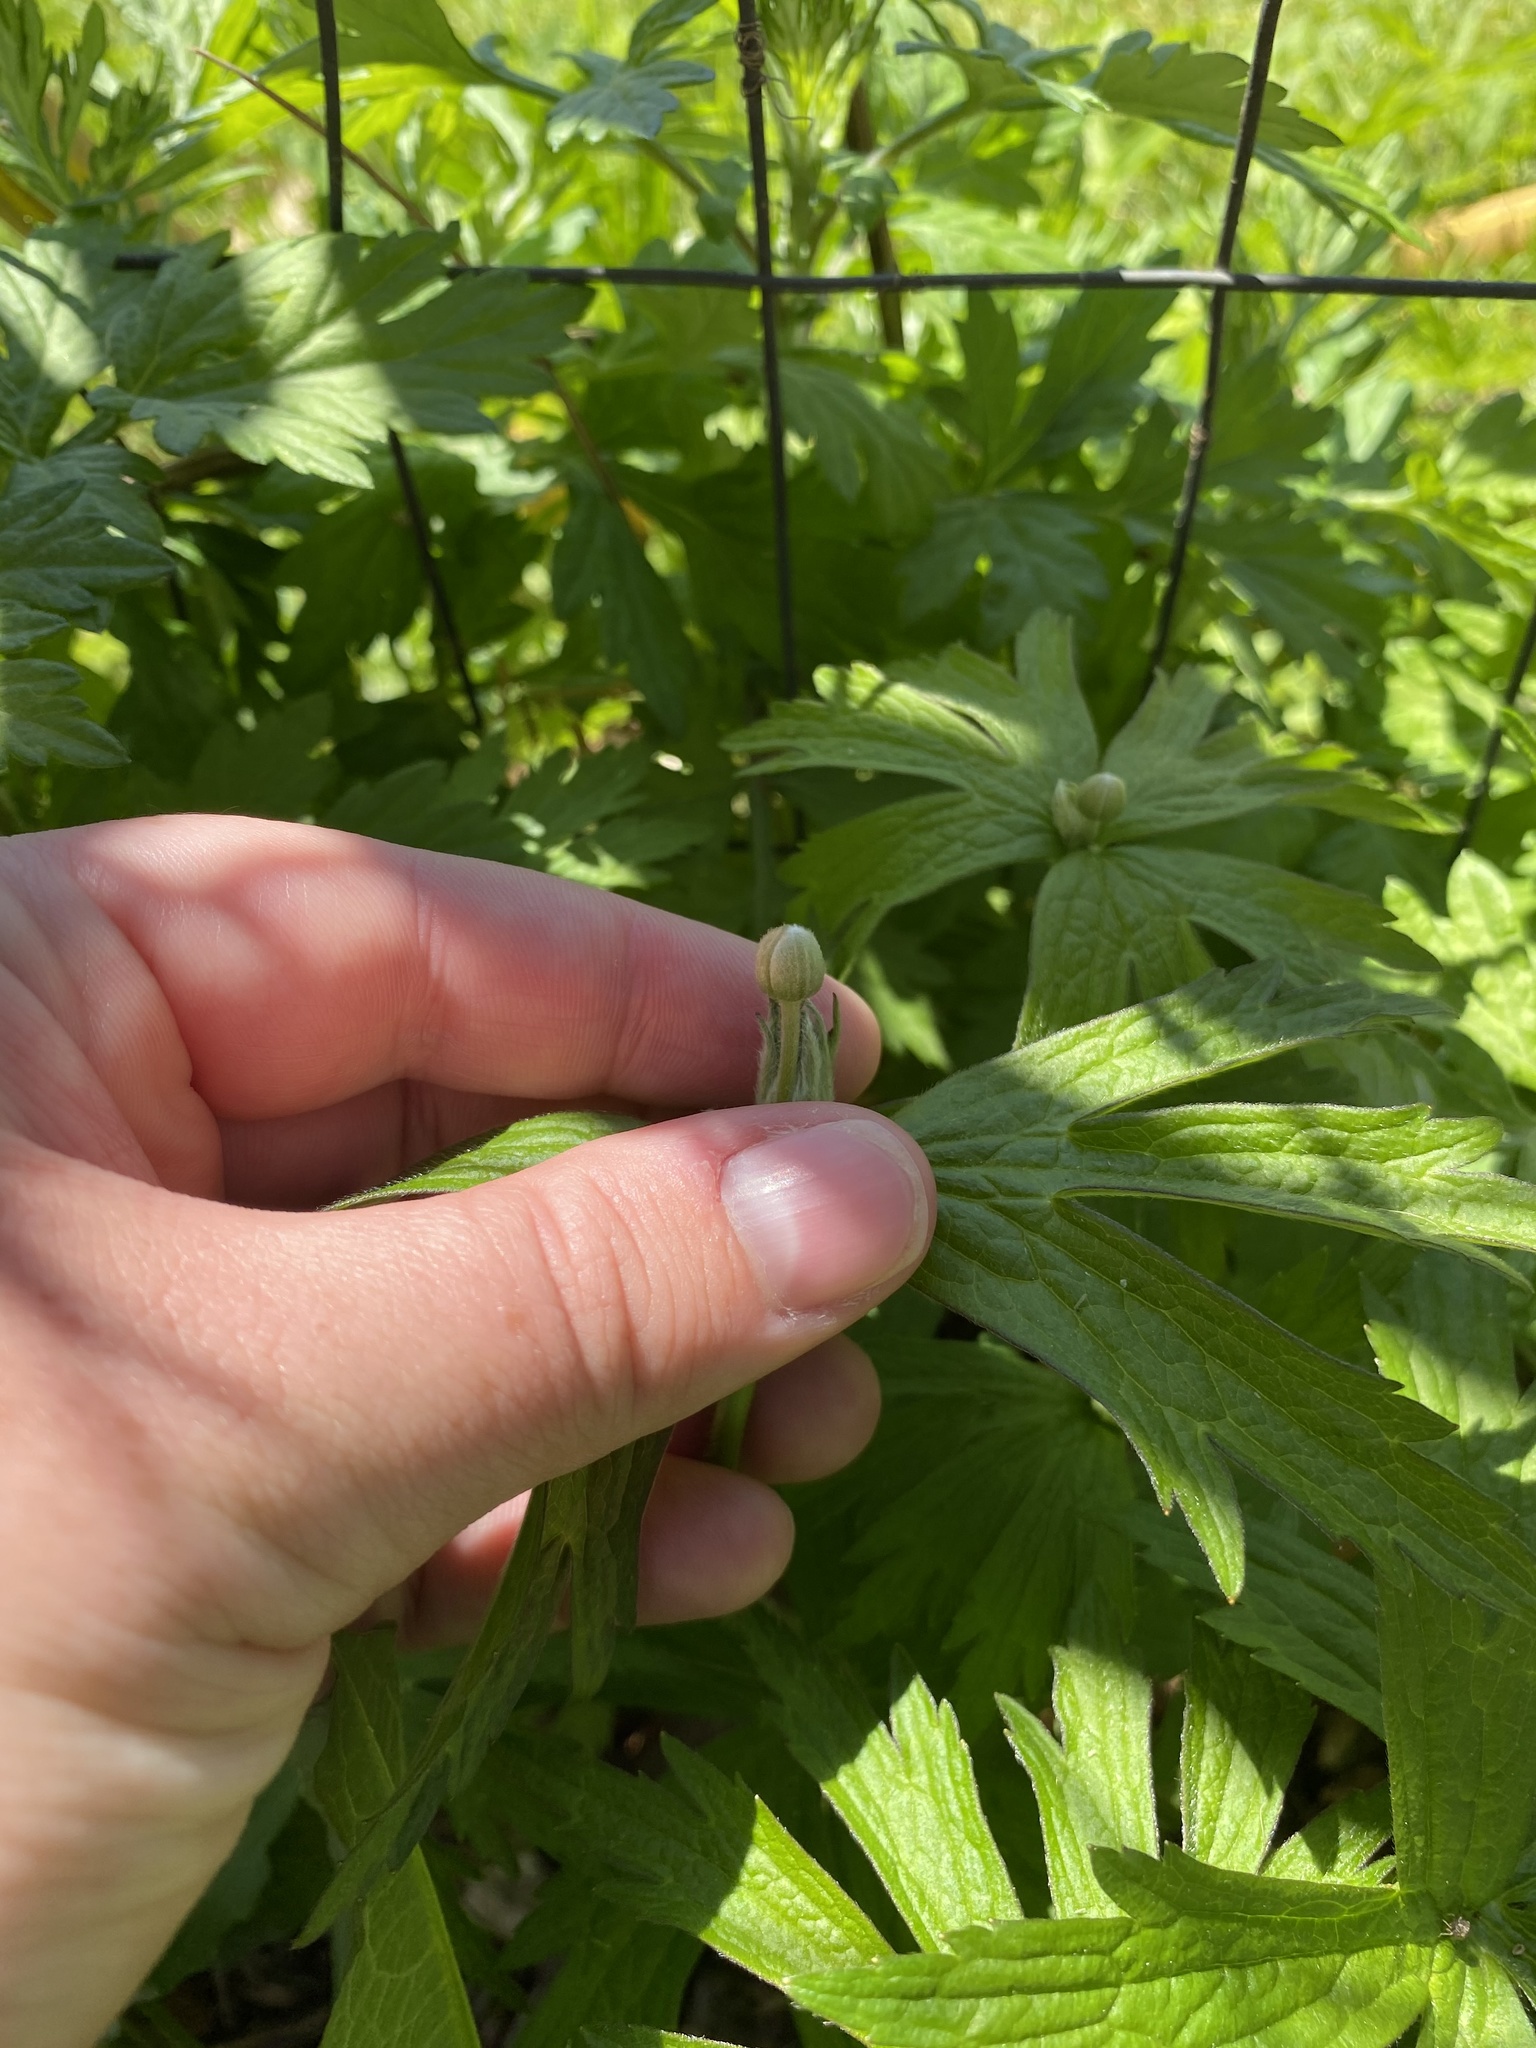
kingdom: Plantae
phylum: Tracheophyta
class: Magnoliopsida
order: Ranunculales
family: Ranunculaceae
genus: Anemonastrum
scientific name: Anemonastrum canadense
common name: Canada anemone
